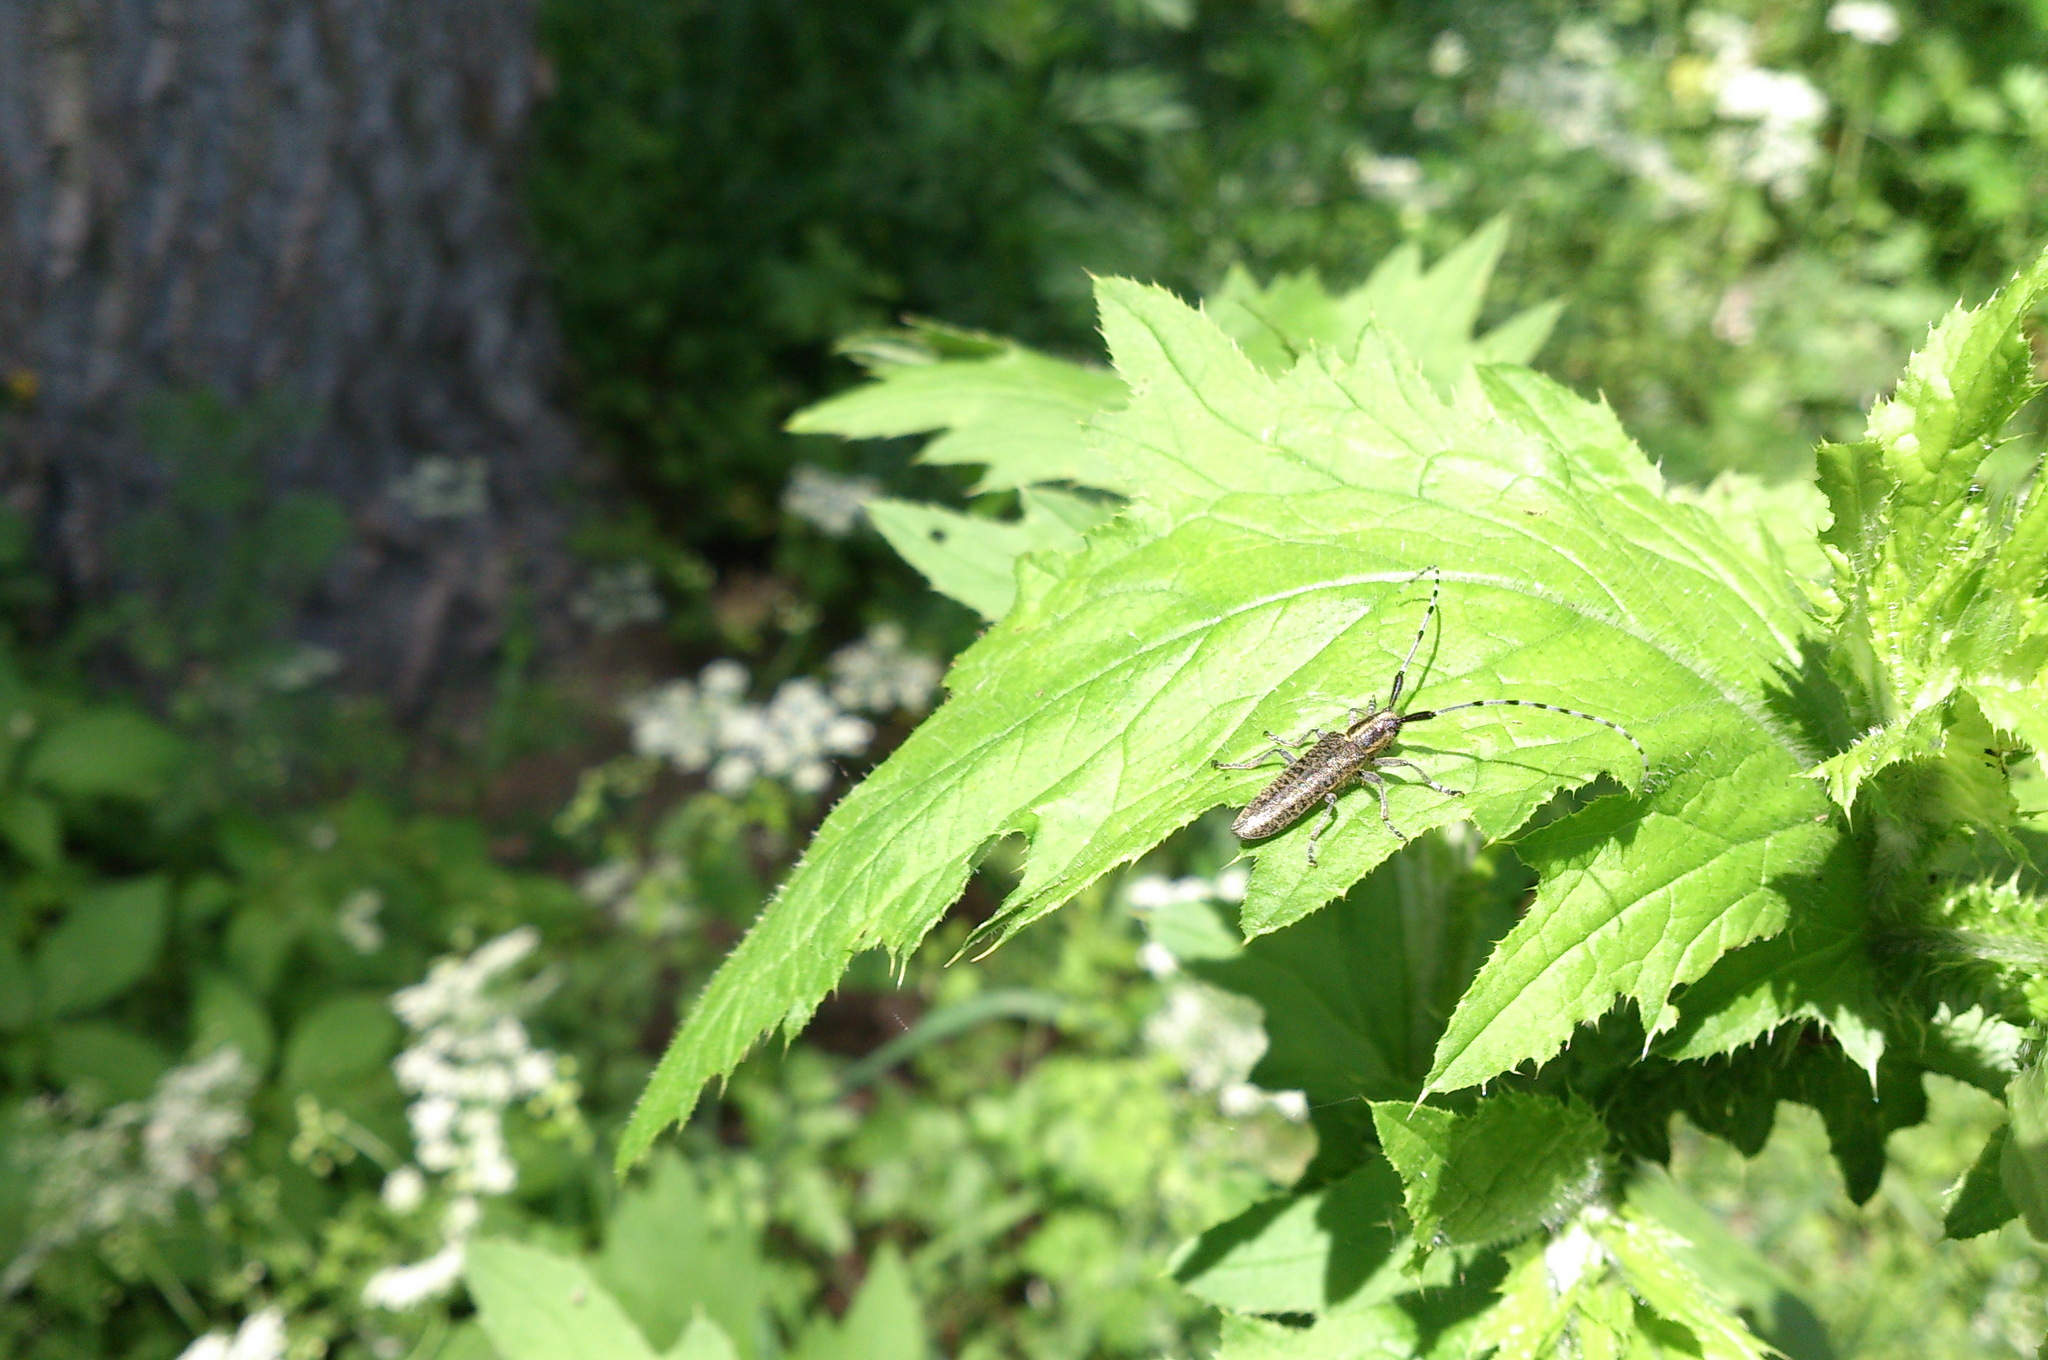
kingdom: Animalia
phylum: Arthropoda
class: Insecta
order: Coleoptera
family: Cerambycidae
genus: Agapanthia
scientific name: Agapanthia villosoviridescens
